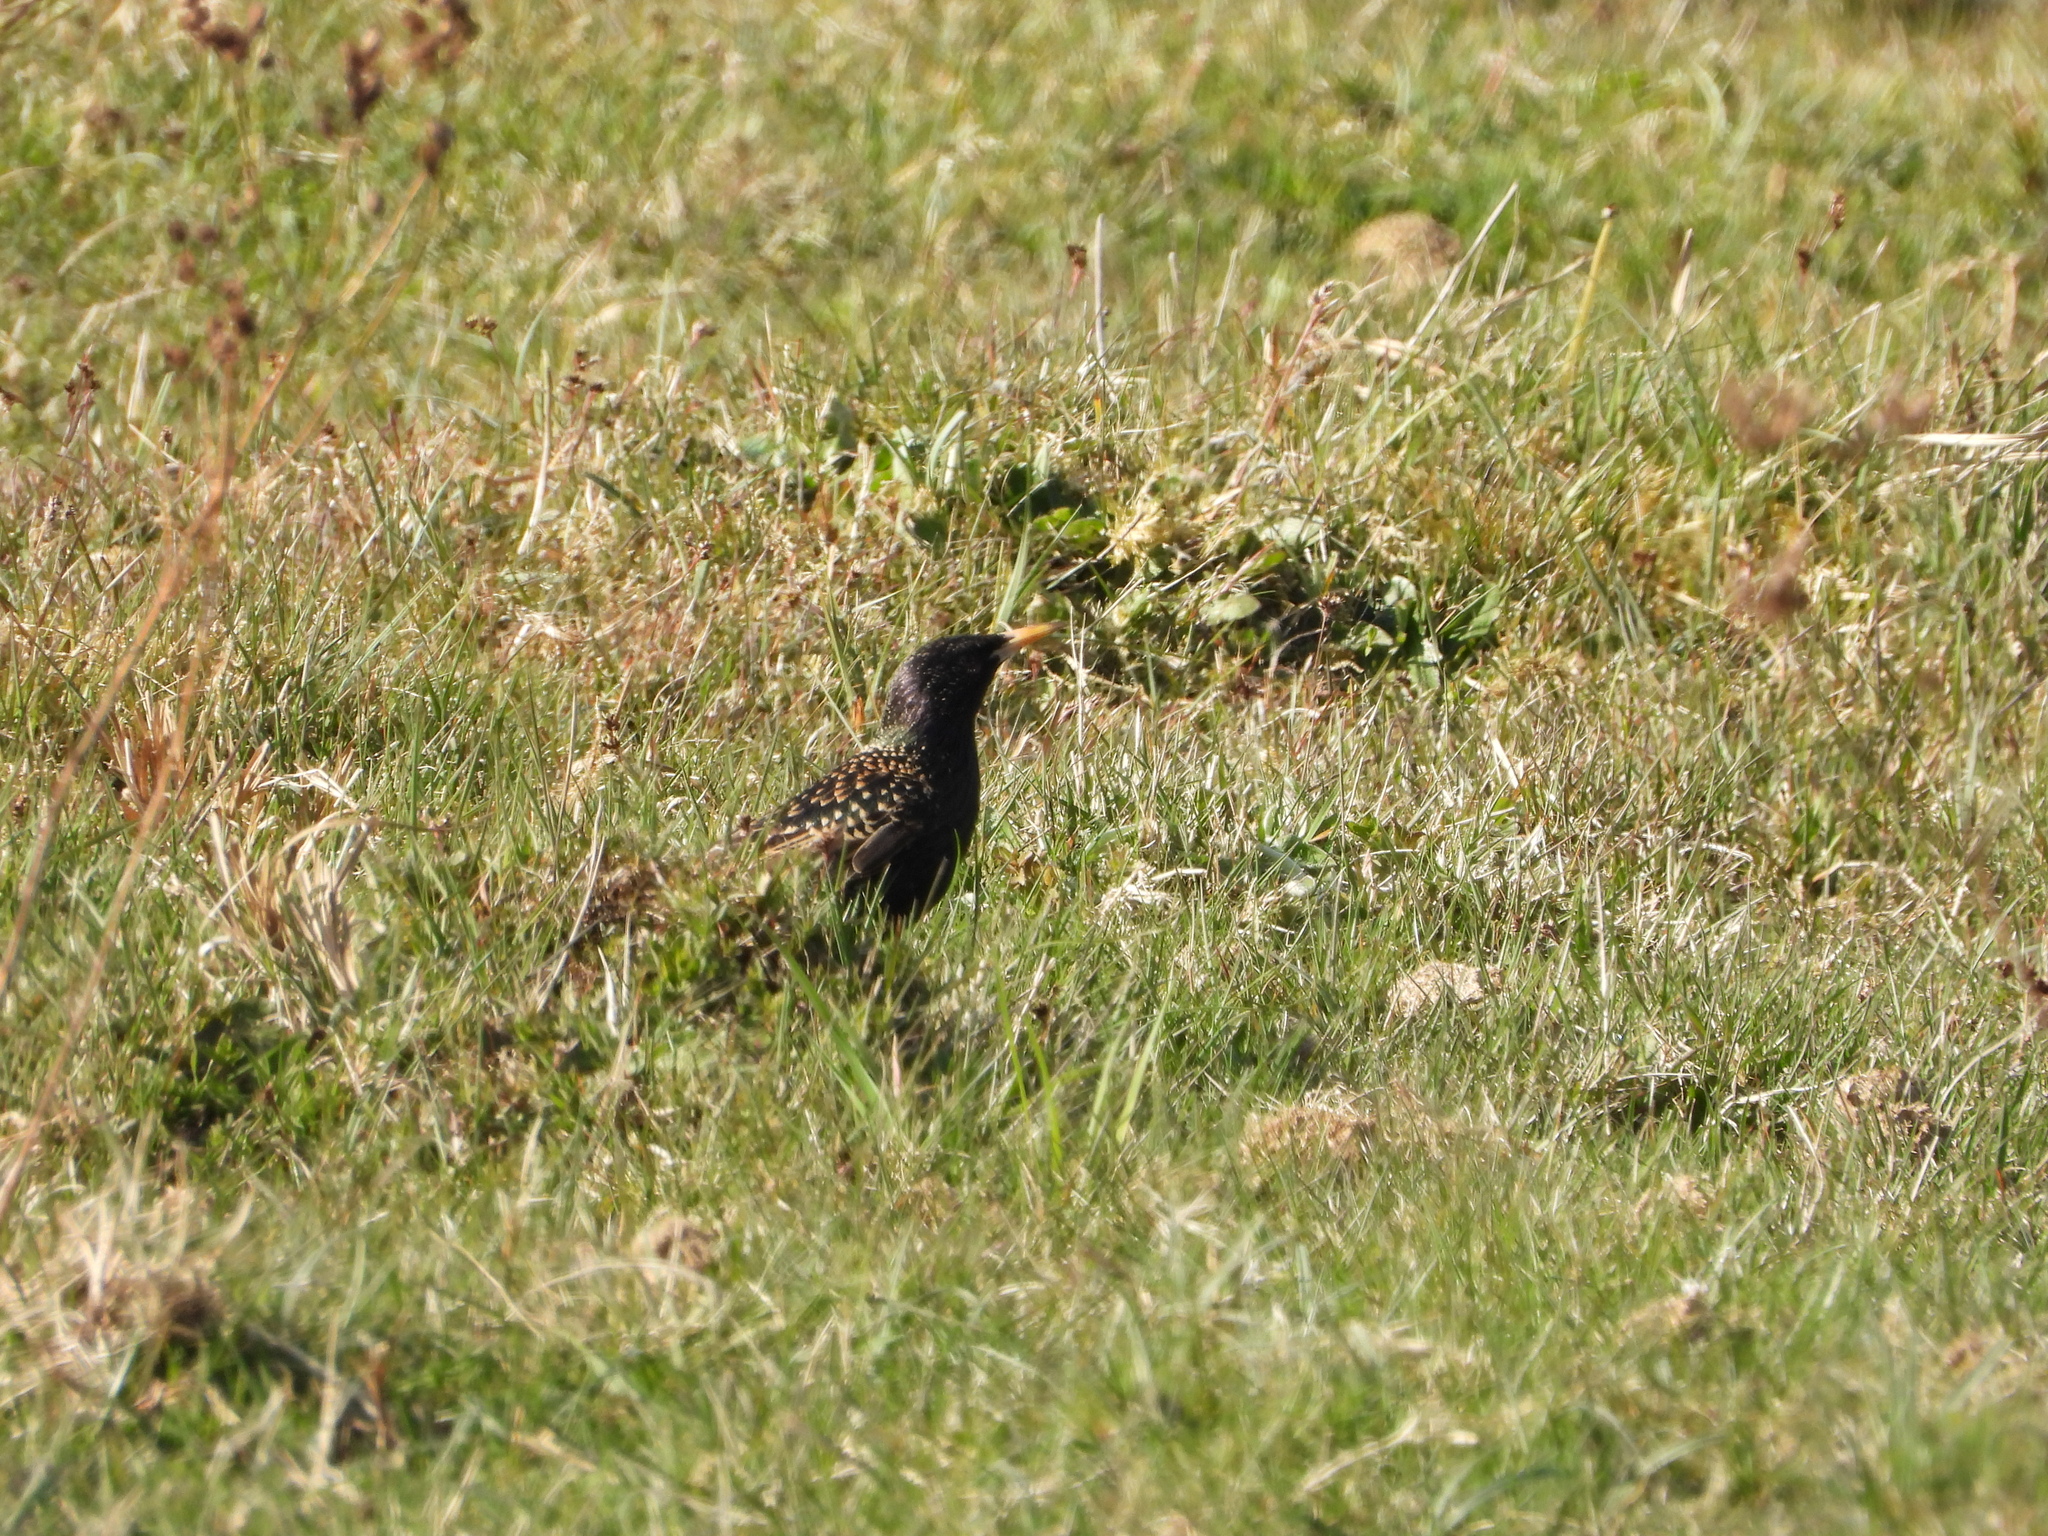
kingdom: Animalia
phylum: Chordata
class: Aves
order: Passeriformes
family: Sturnidae
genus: Sturnus
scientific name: Sturnus vulgaris
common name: Common starling
